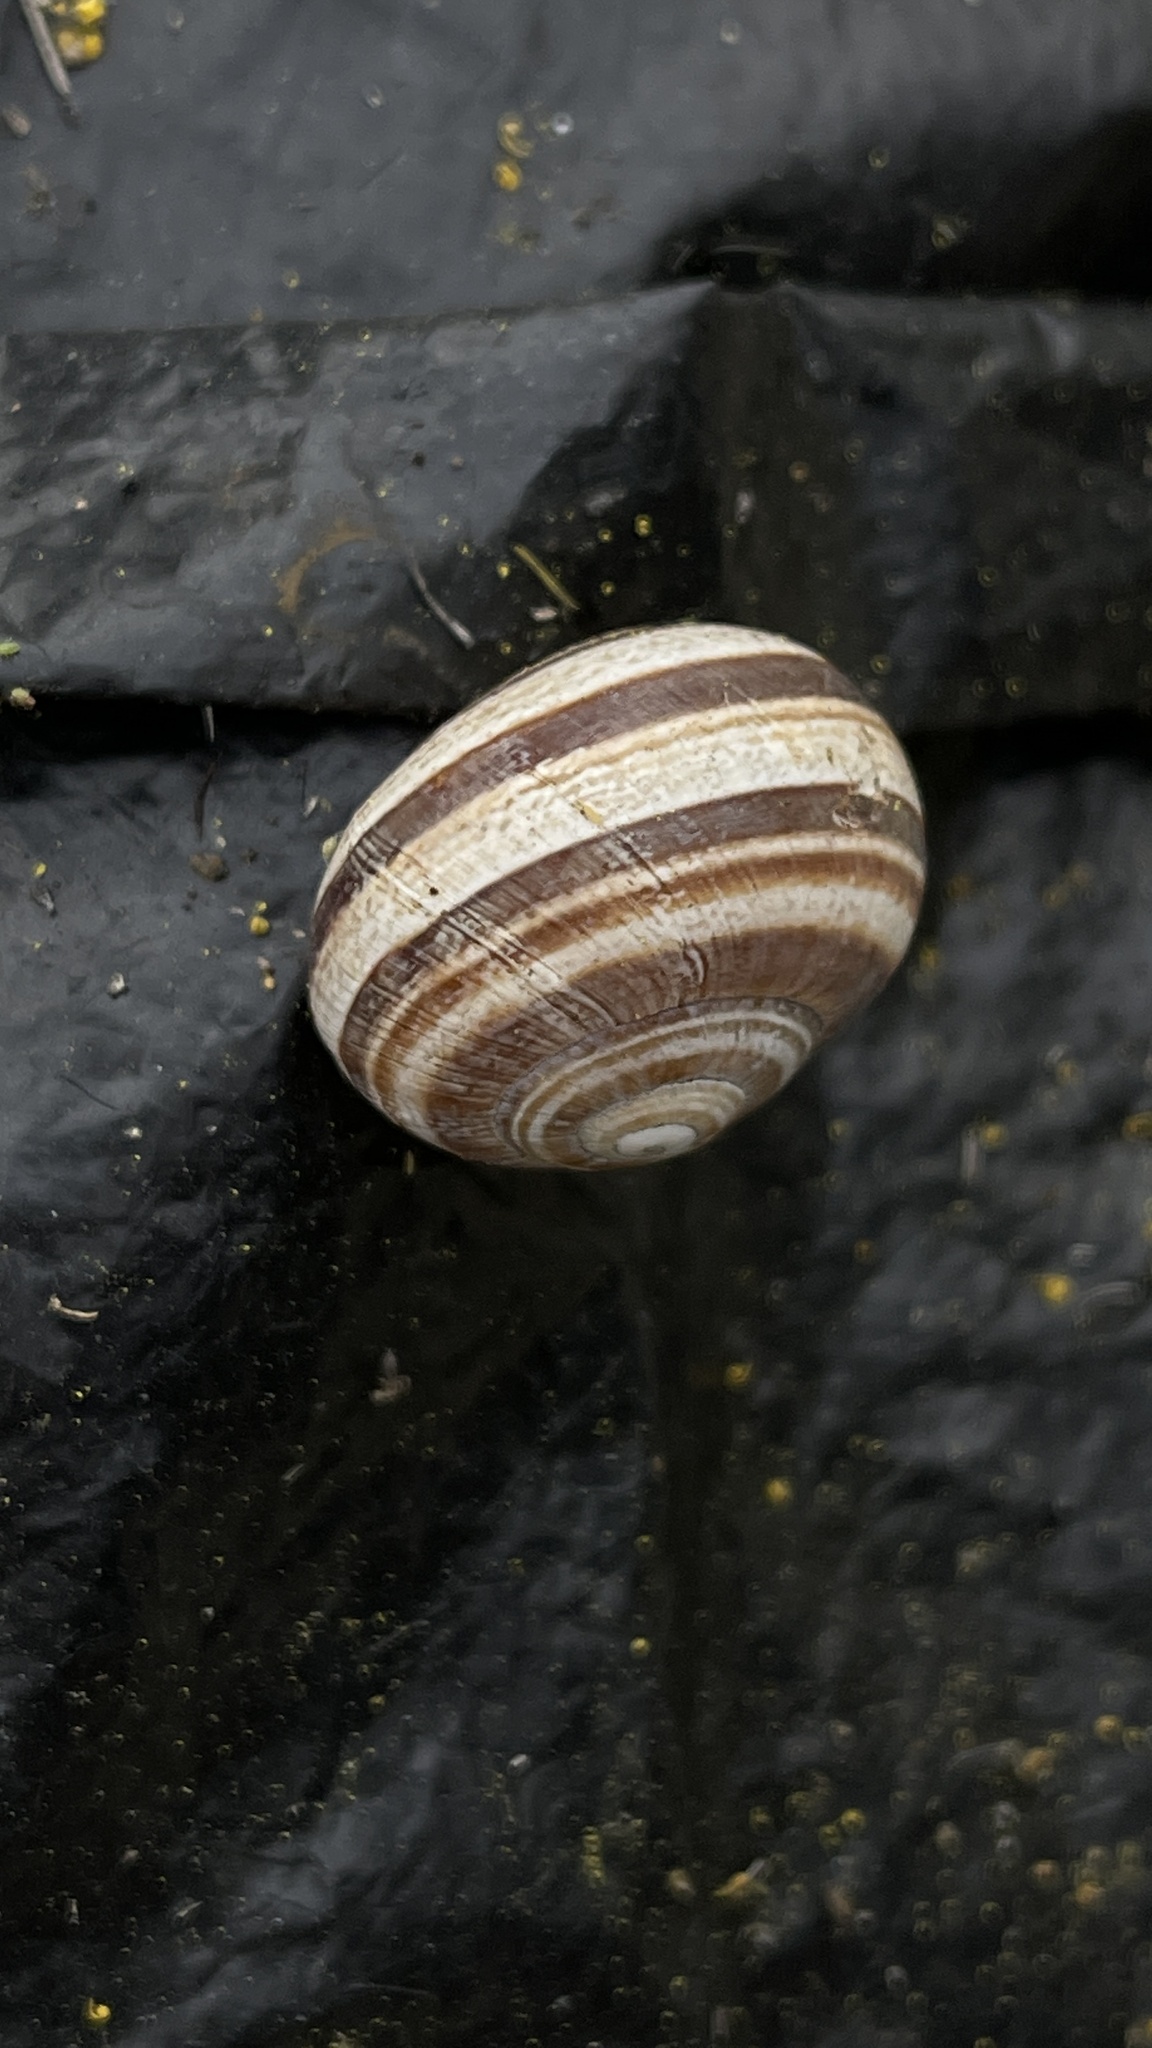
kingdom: Animalia
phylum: Mollusca
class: Gastropoda
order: Stylommatophora
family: Helicidae
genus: Otala
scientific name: Otala lactea
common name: Milk snail
